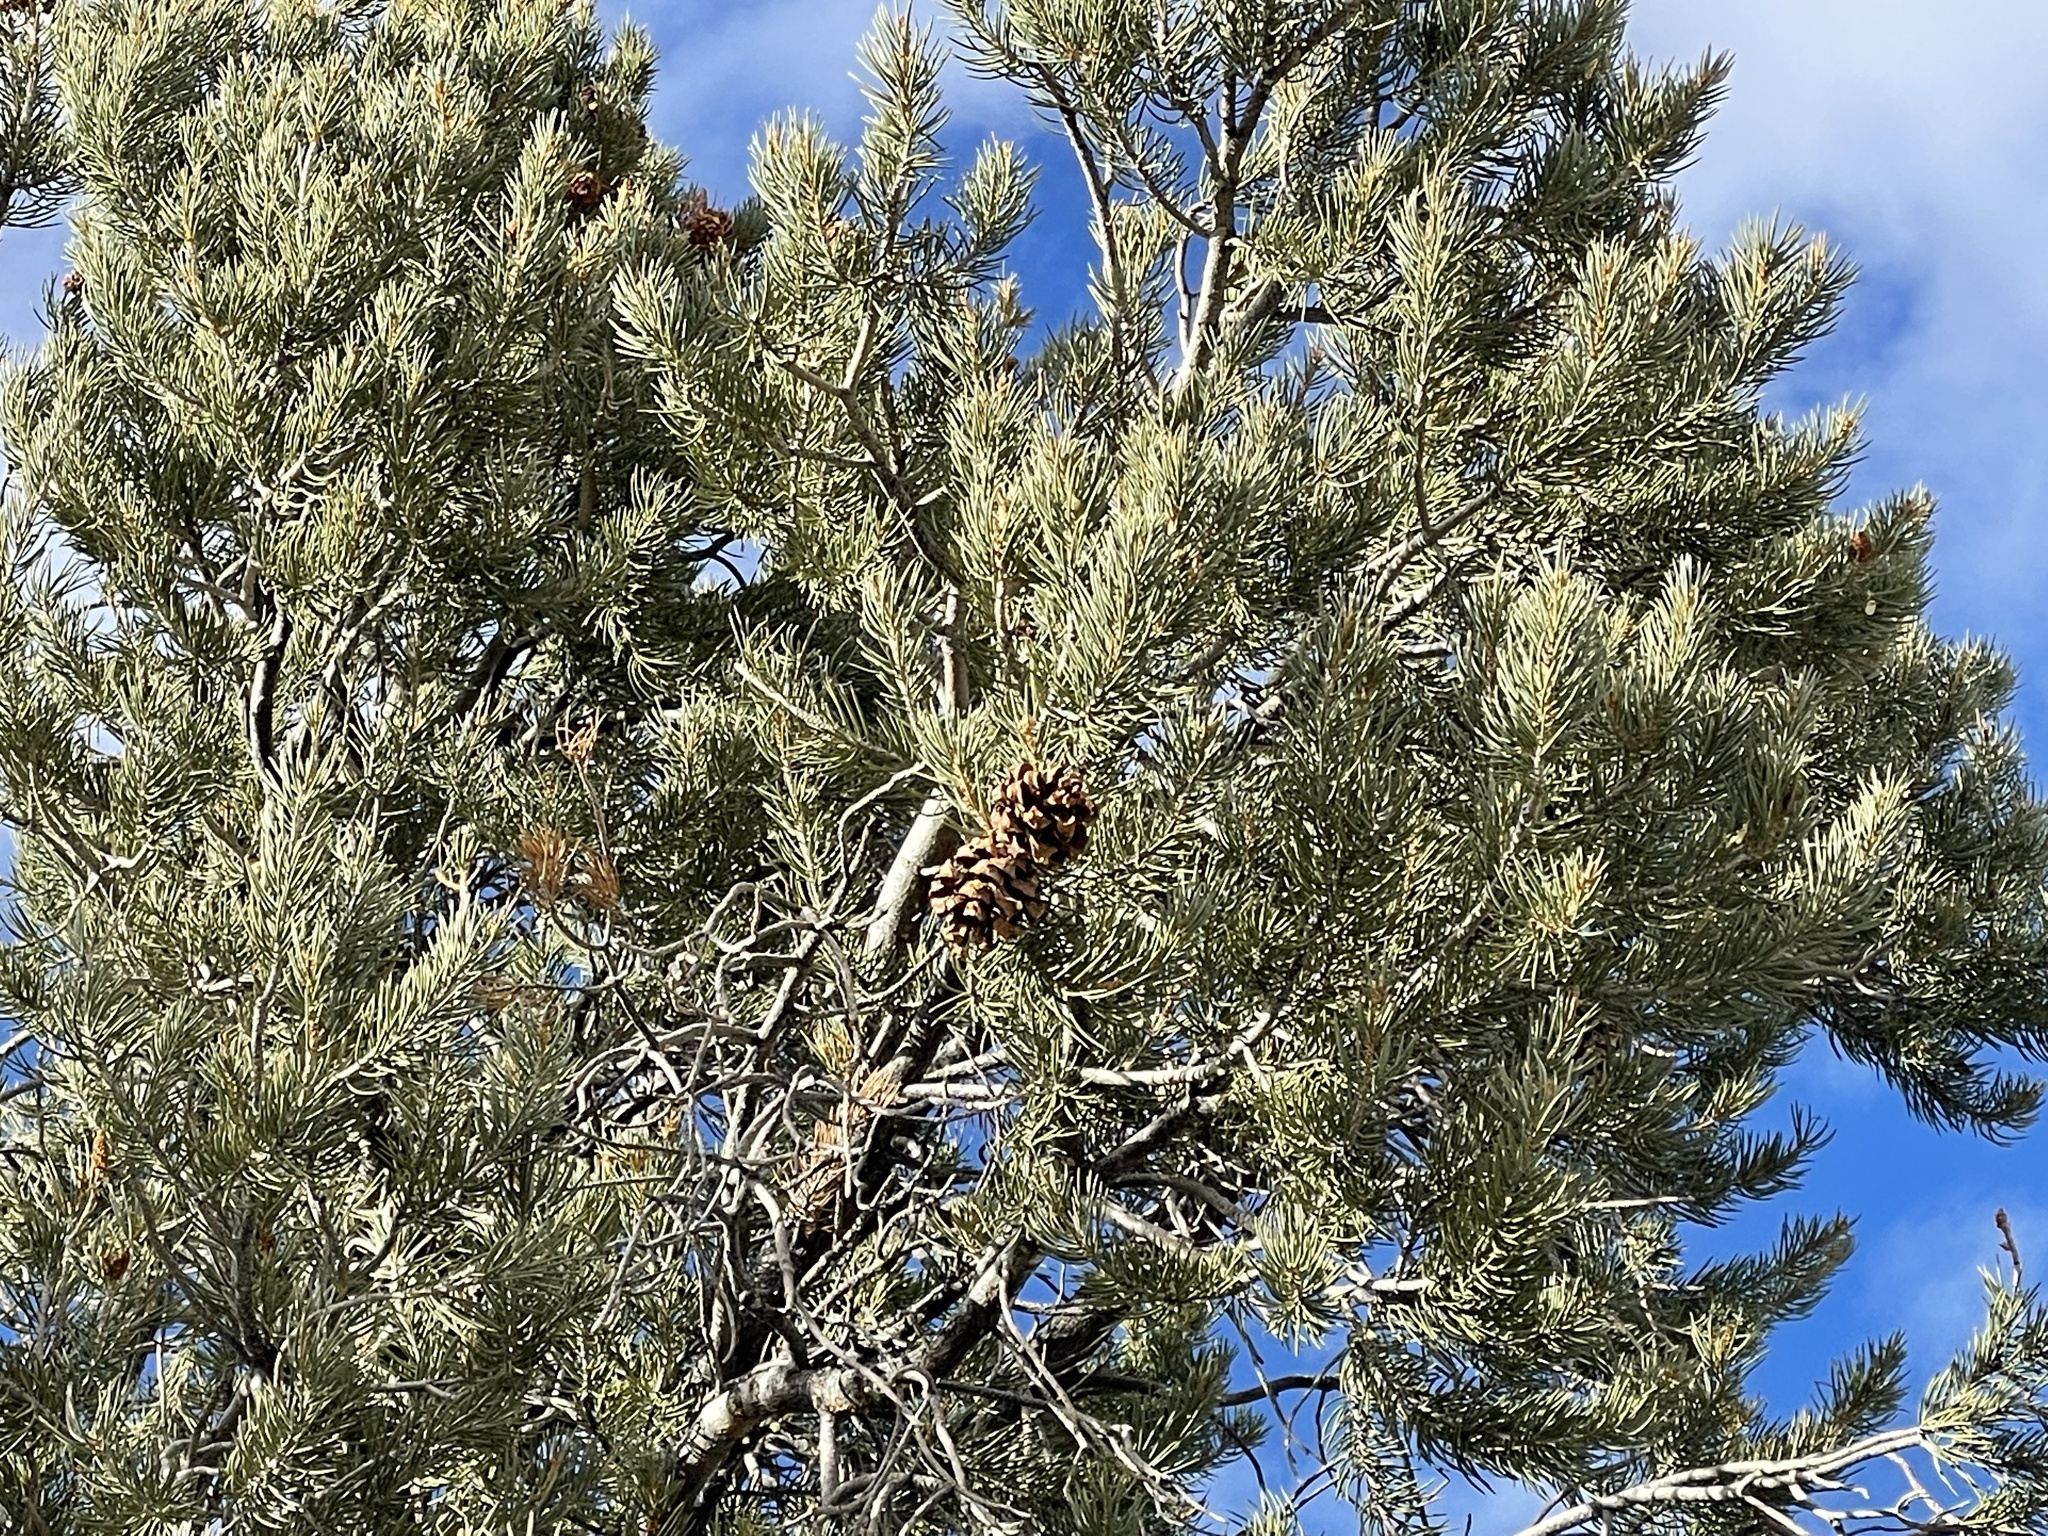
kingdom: Plantae
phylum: Tracheophyta
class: Pinopsida
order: Pinales
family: Pinaceae
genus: Pinus
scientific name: Pinus monophylla
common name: One-leaved nut pine
